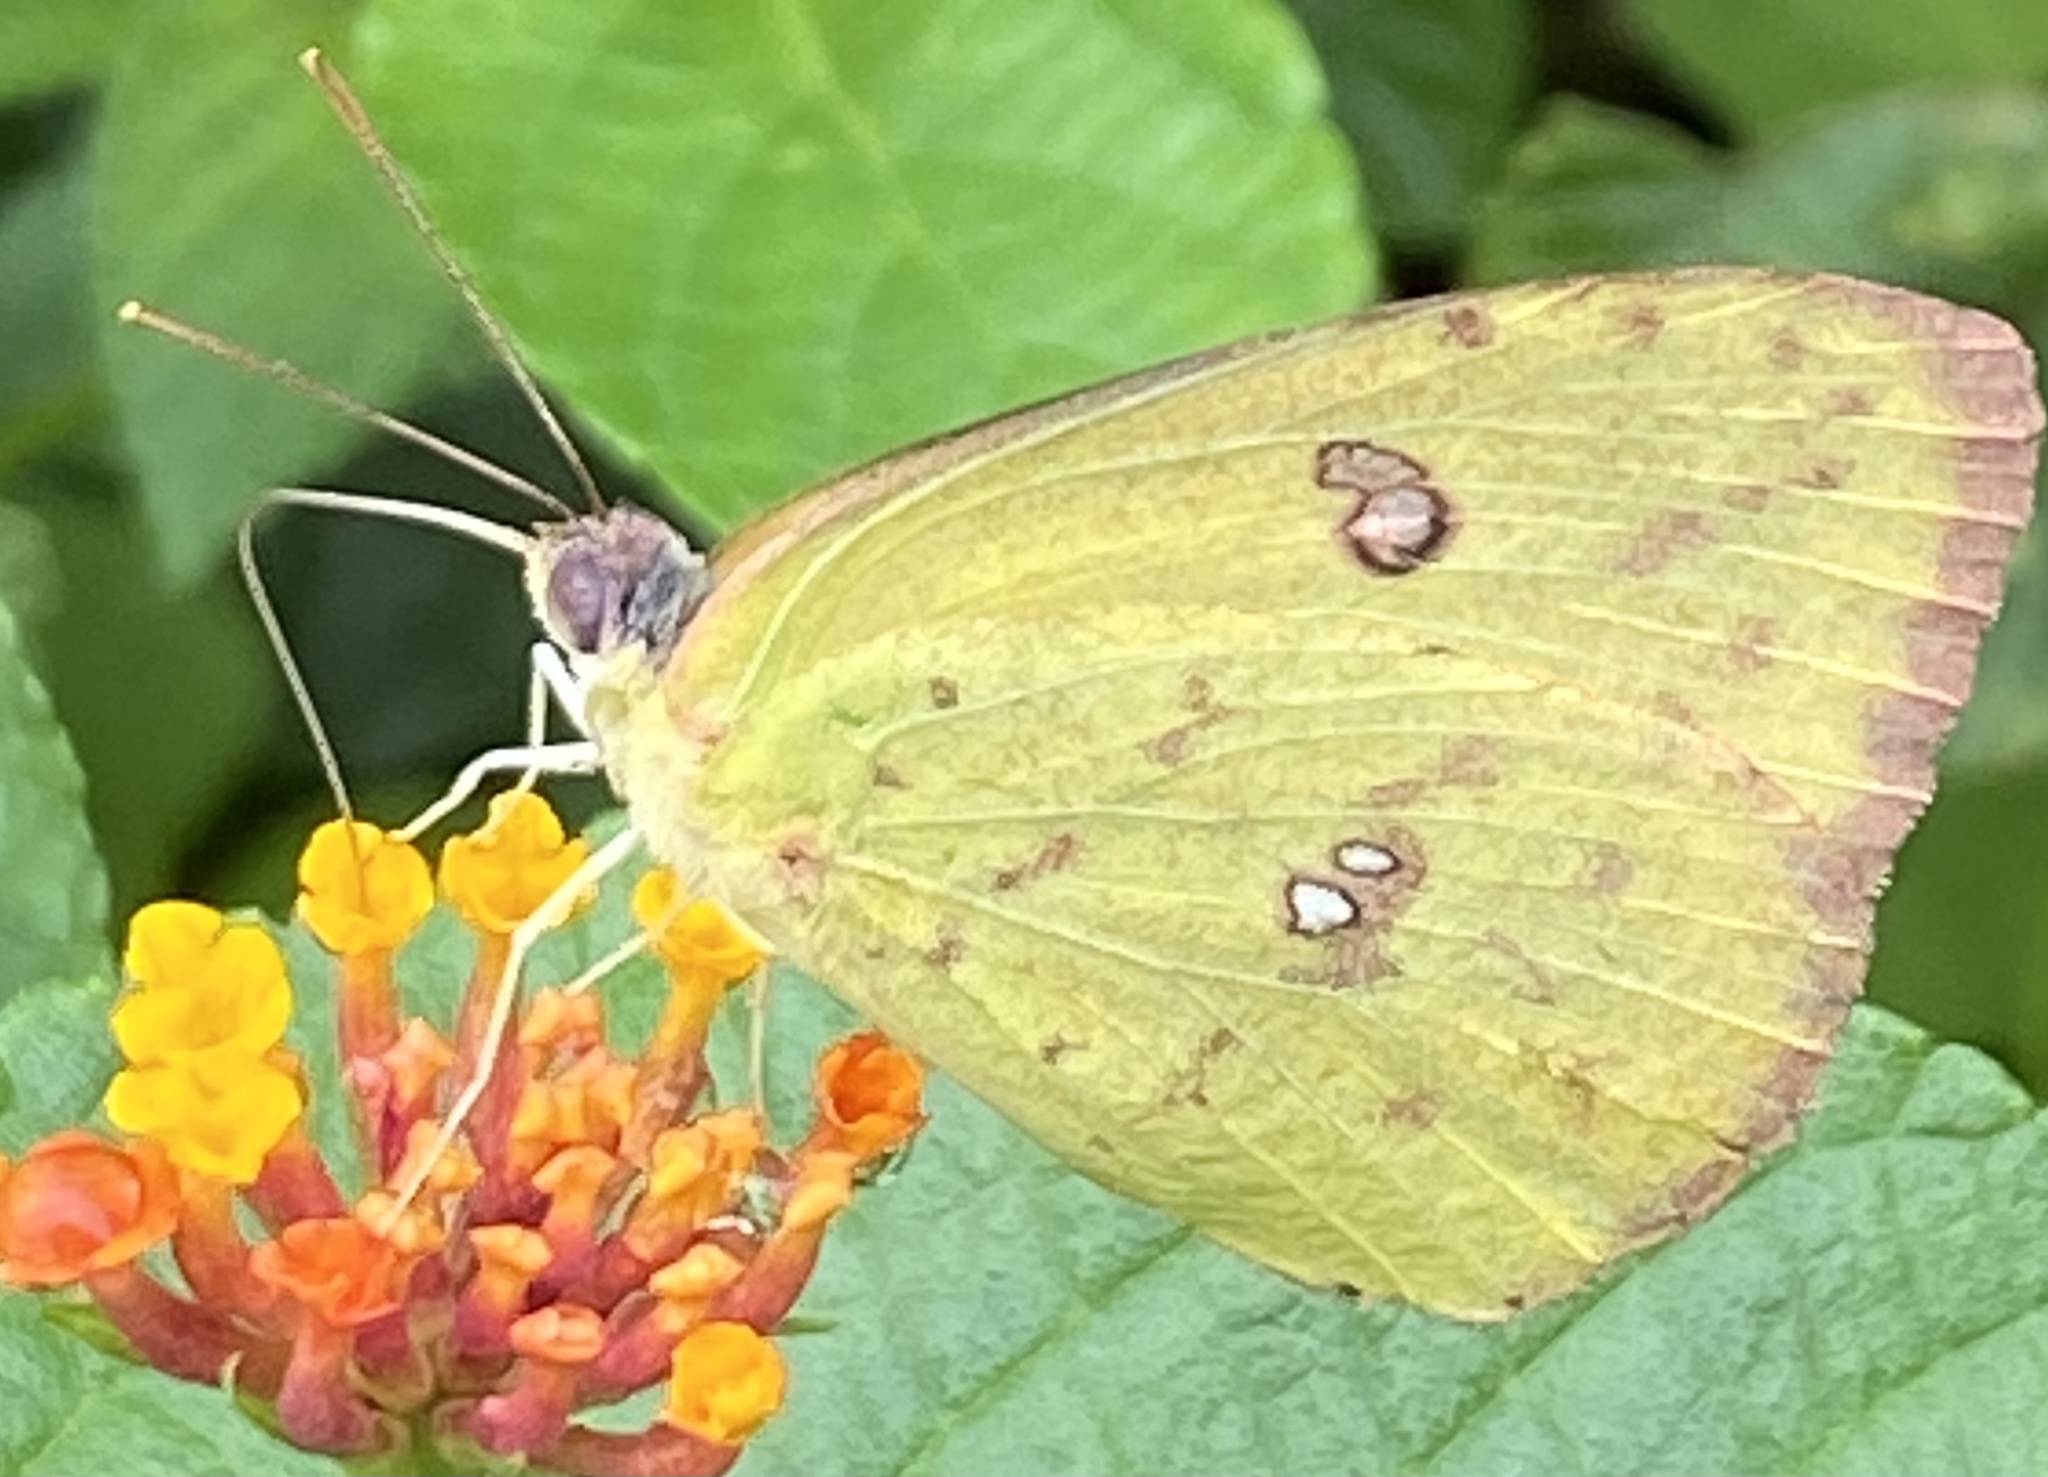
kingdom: Animalia
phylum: Arthropoda
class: Insecta
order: Lepidoptera
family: Pieridae
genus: Phoebis
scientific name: Phoebis marcellina
